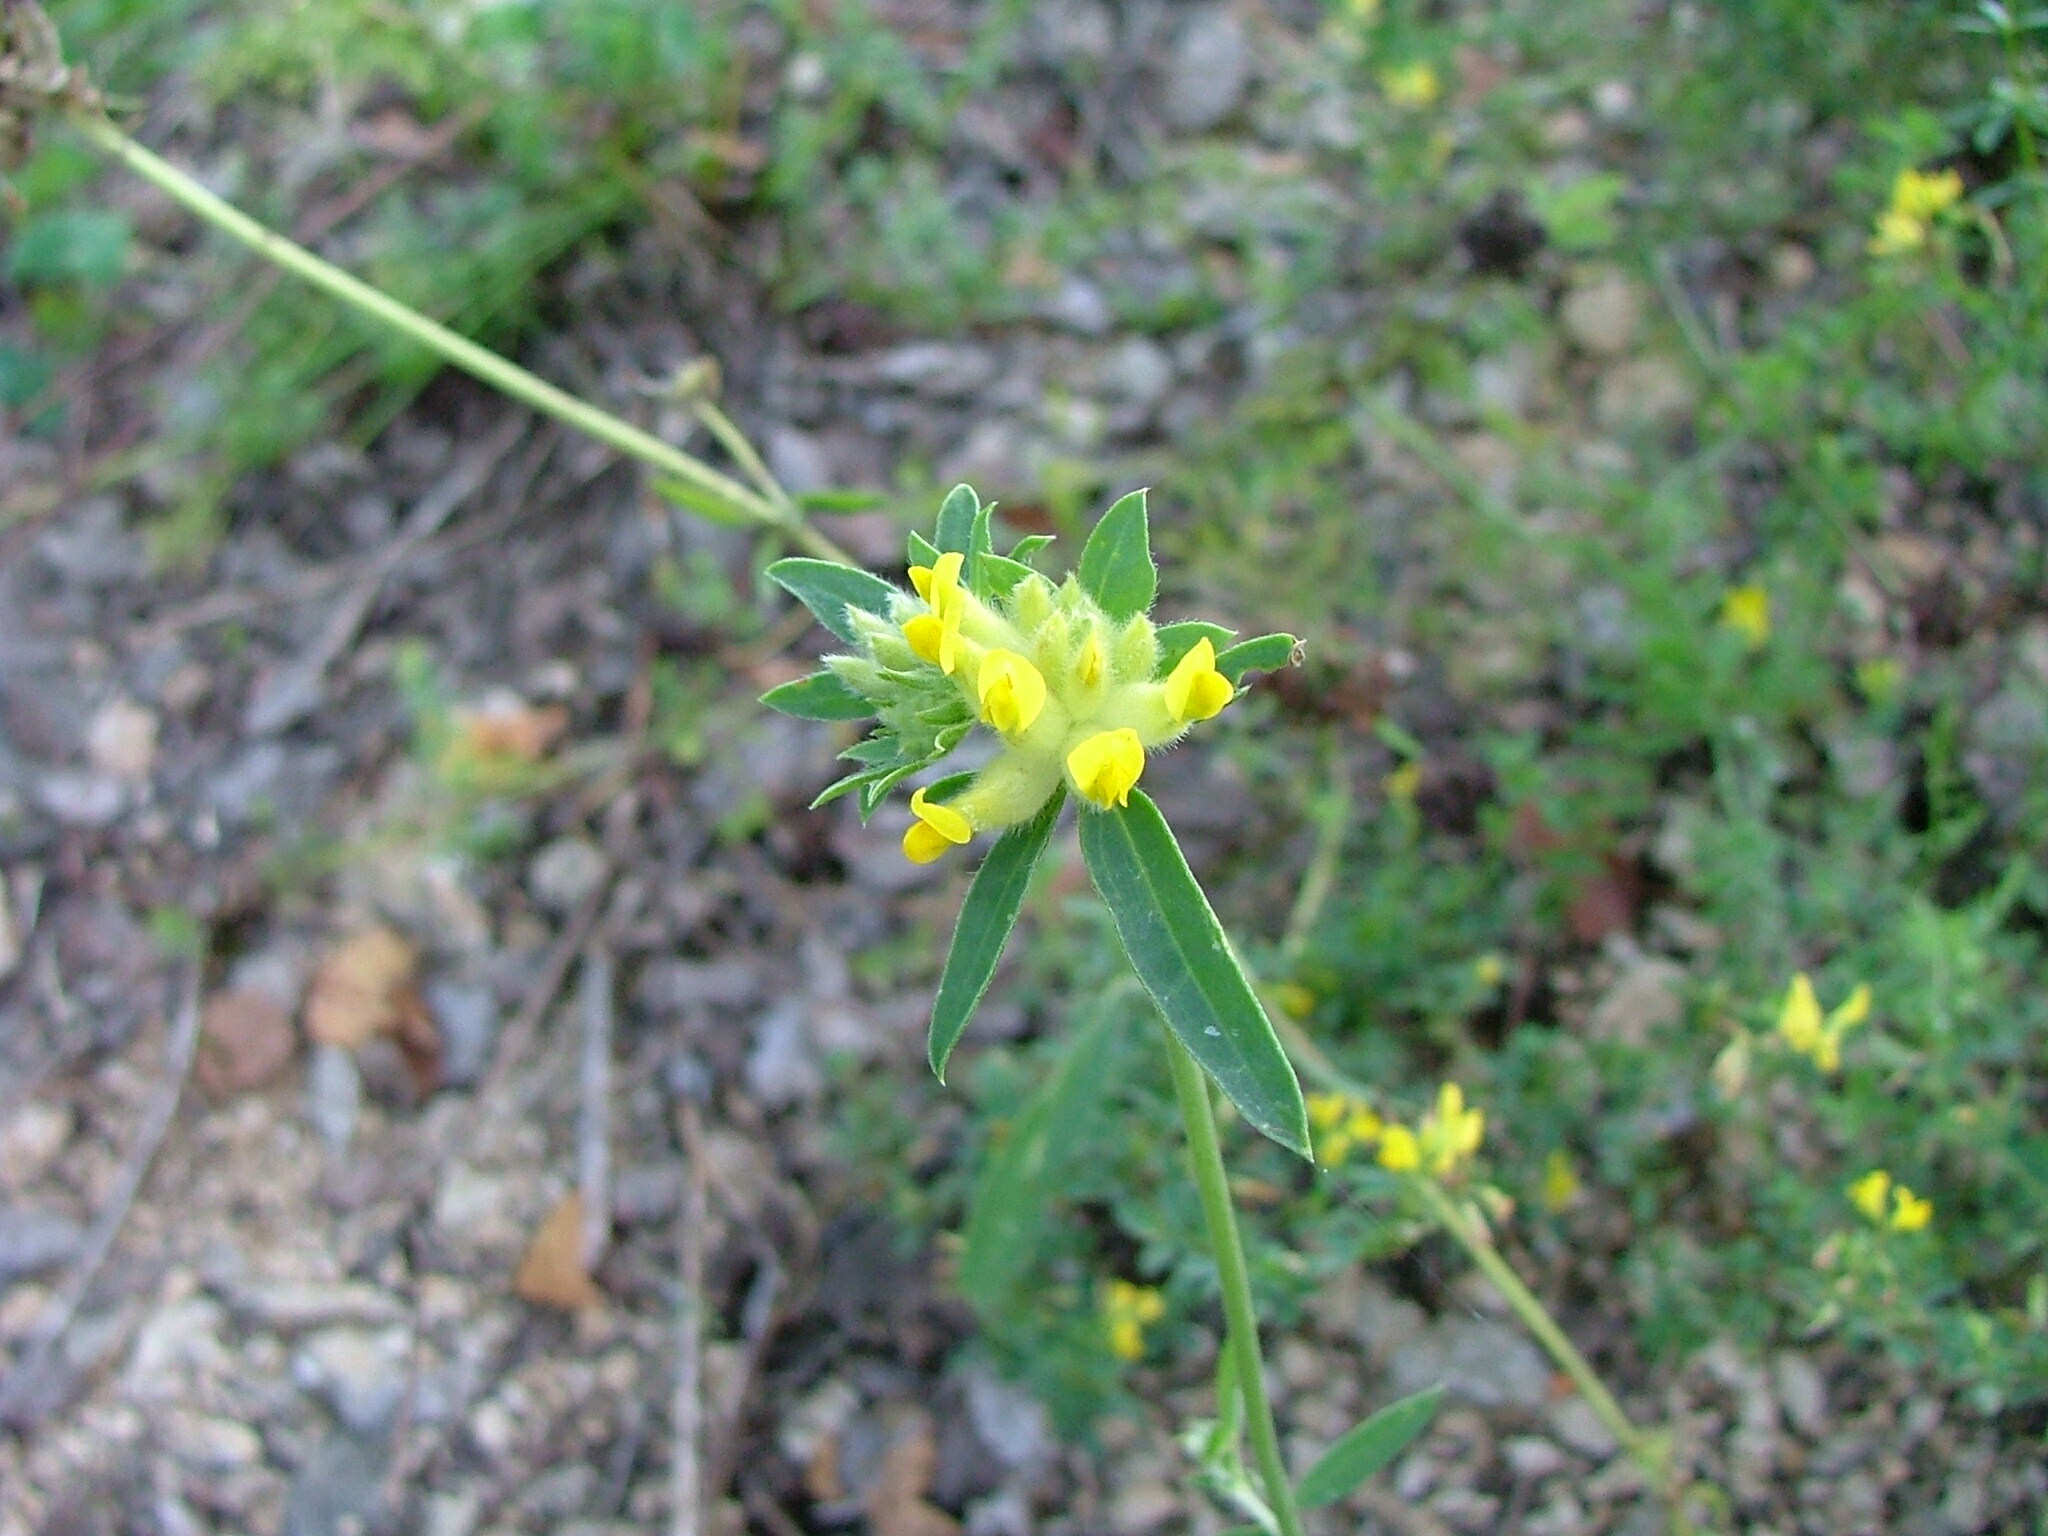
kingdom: Plantae
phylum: Tracheophyta
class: Magnoliopsida
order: Fabales
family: Fabaceae
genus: Anthyllis
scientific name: Anthyllis vulneraria
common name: Kidney vetch
